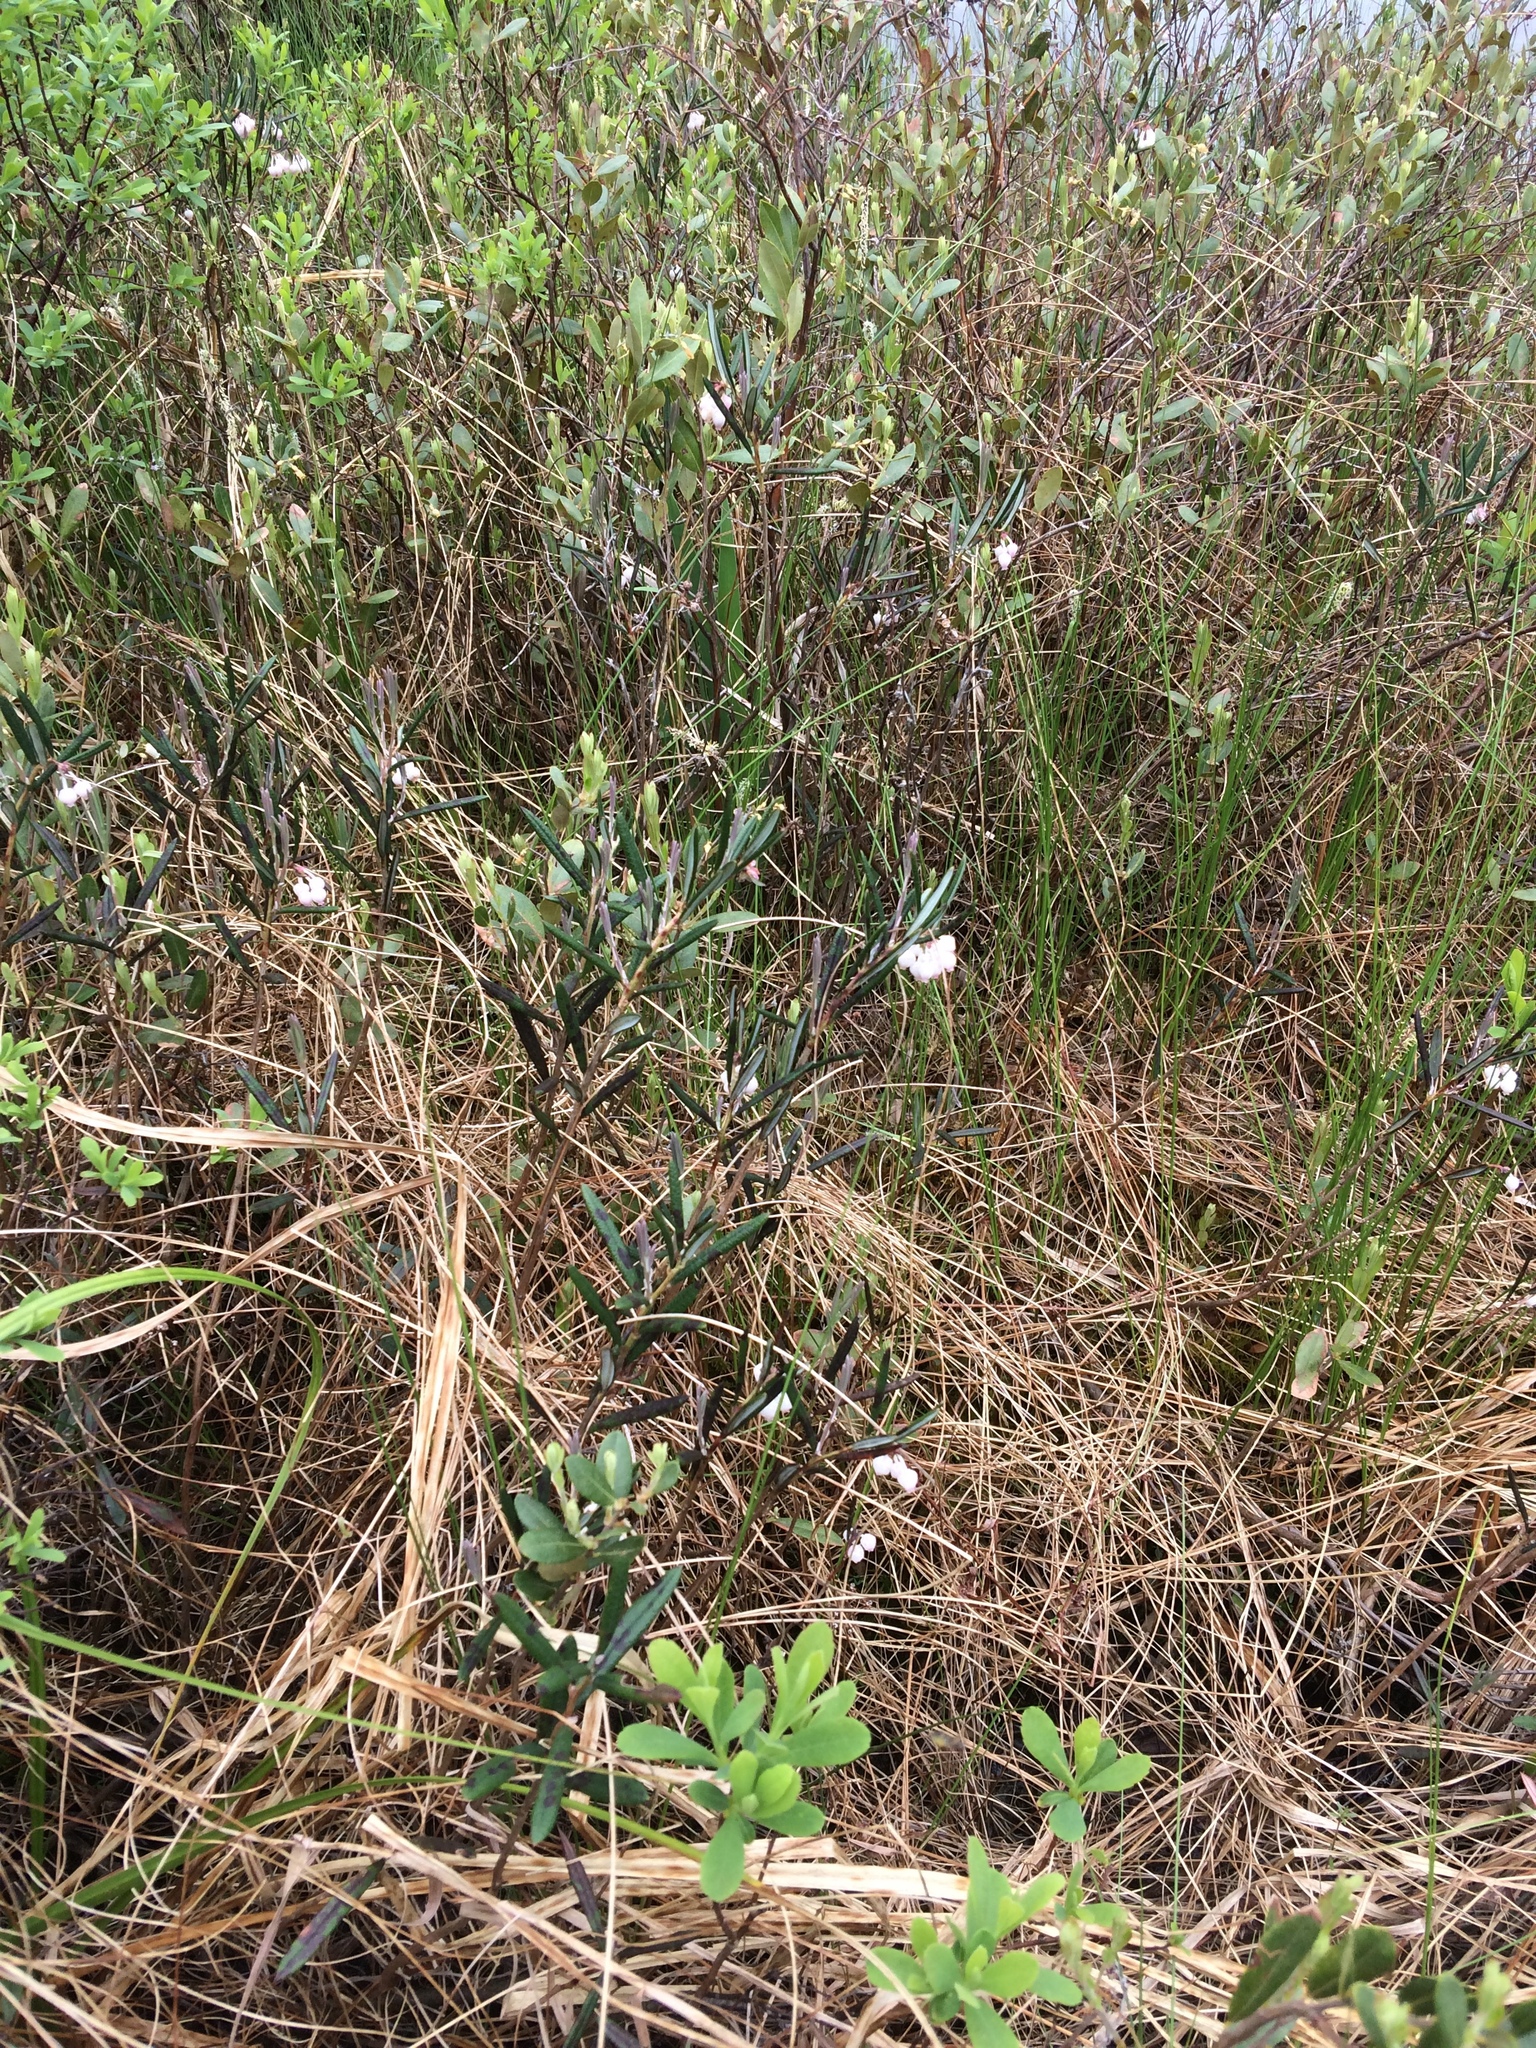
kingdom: Plantae
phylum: Tracheophyta
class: Magnoliopsida
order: Ericales
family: Ericaceae
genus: Andromeda
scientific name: Andromeda polifolia
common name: Bog-rosemary
